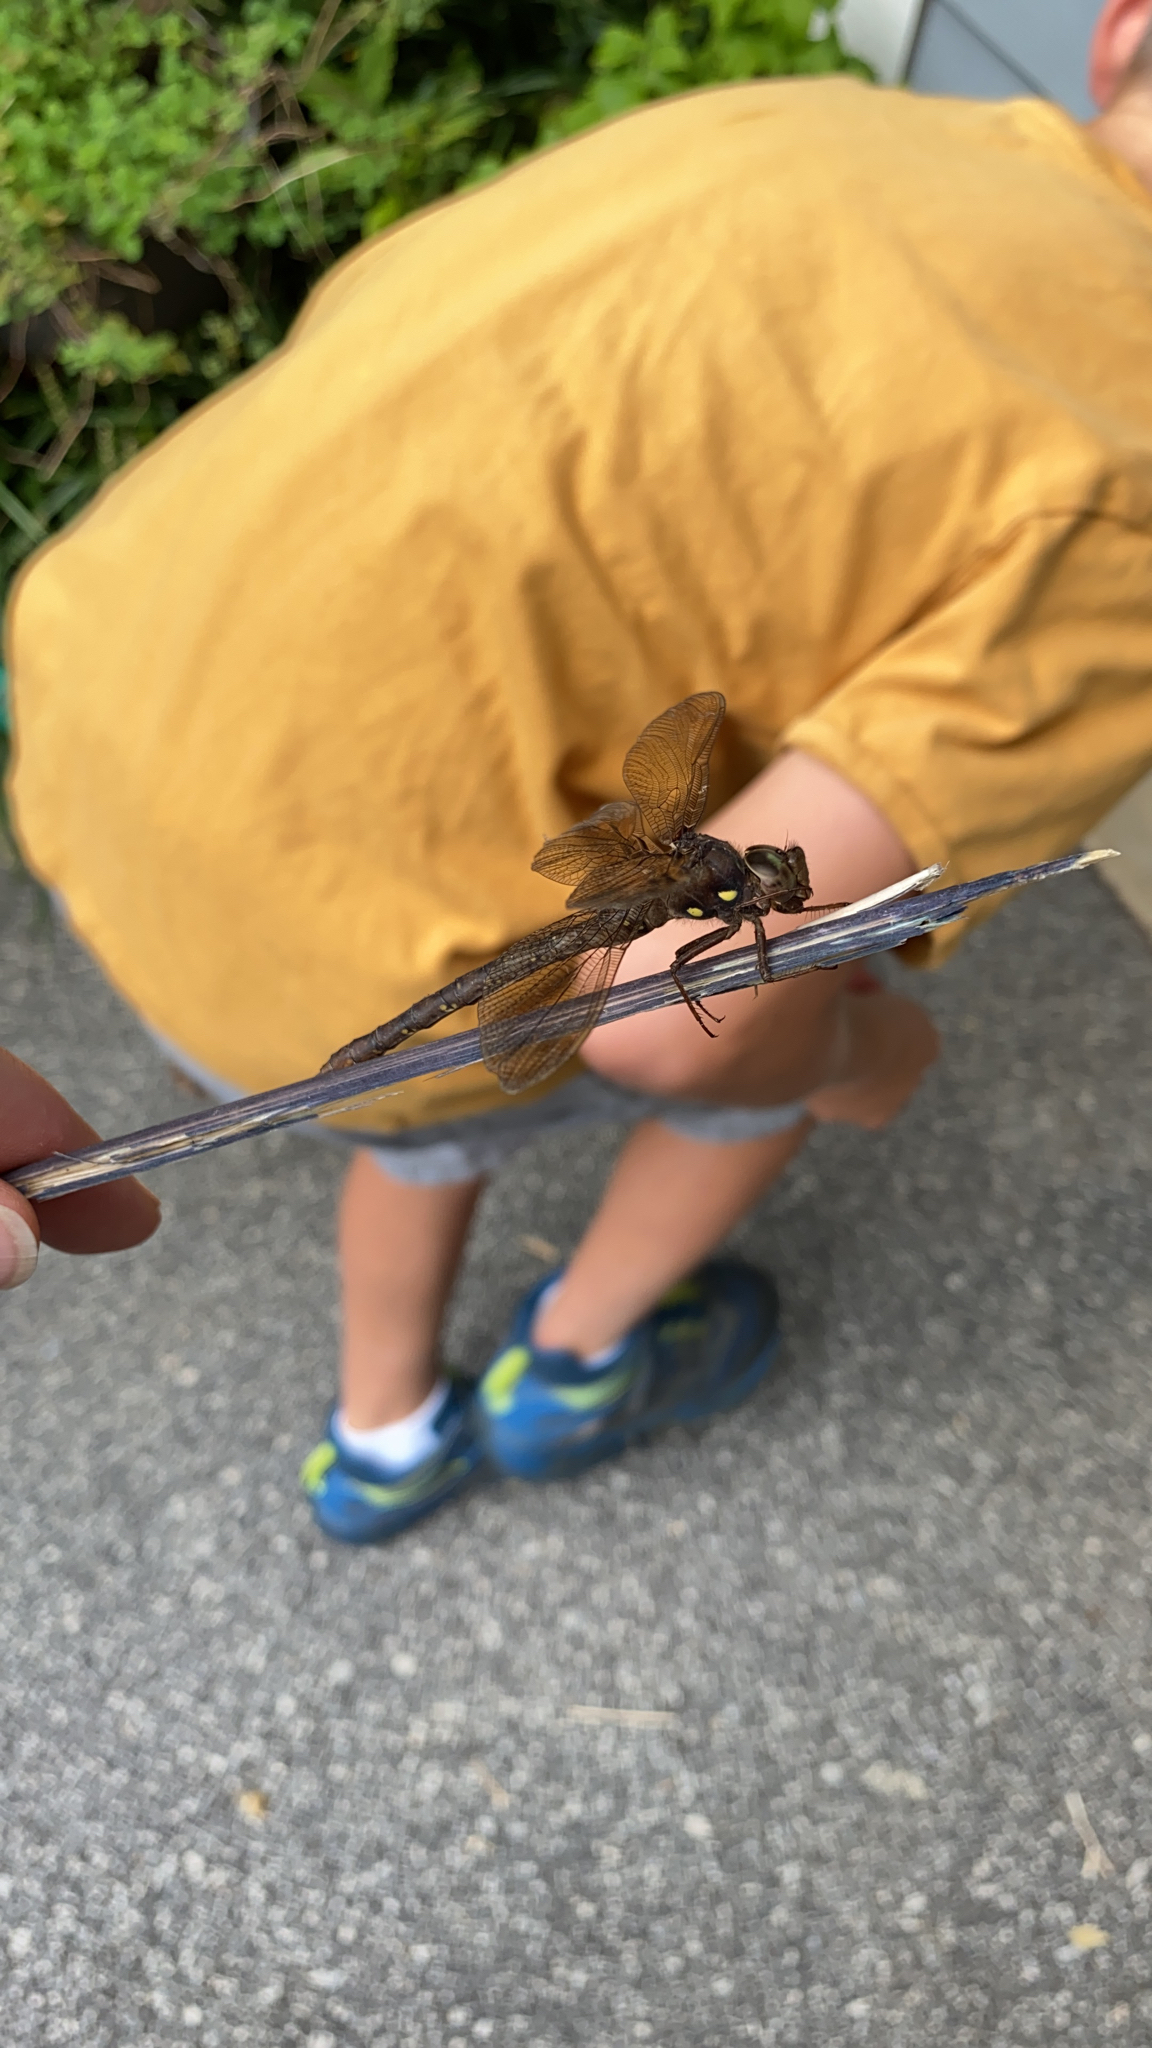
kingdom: Animalia
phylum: Arthropoda
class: Insecta
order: Odonata
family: Aeshnidae
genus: Boyeria
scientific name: Boyeria vinosa
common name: Fawn darner
